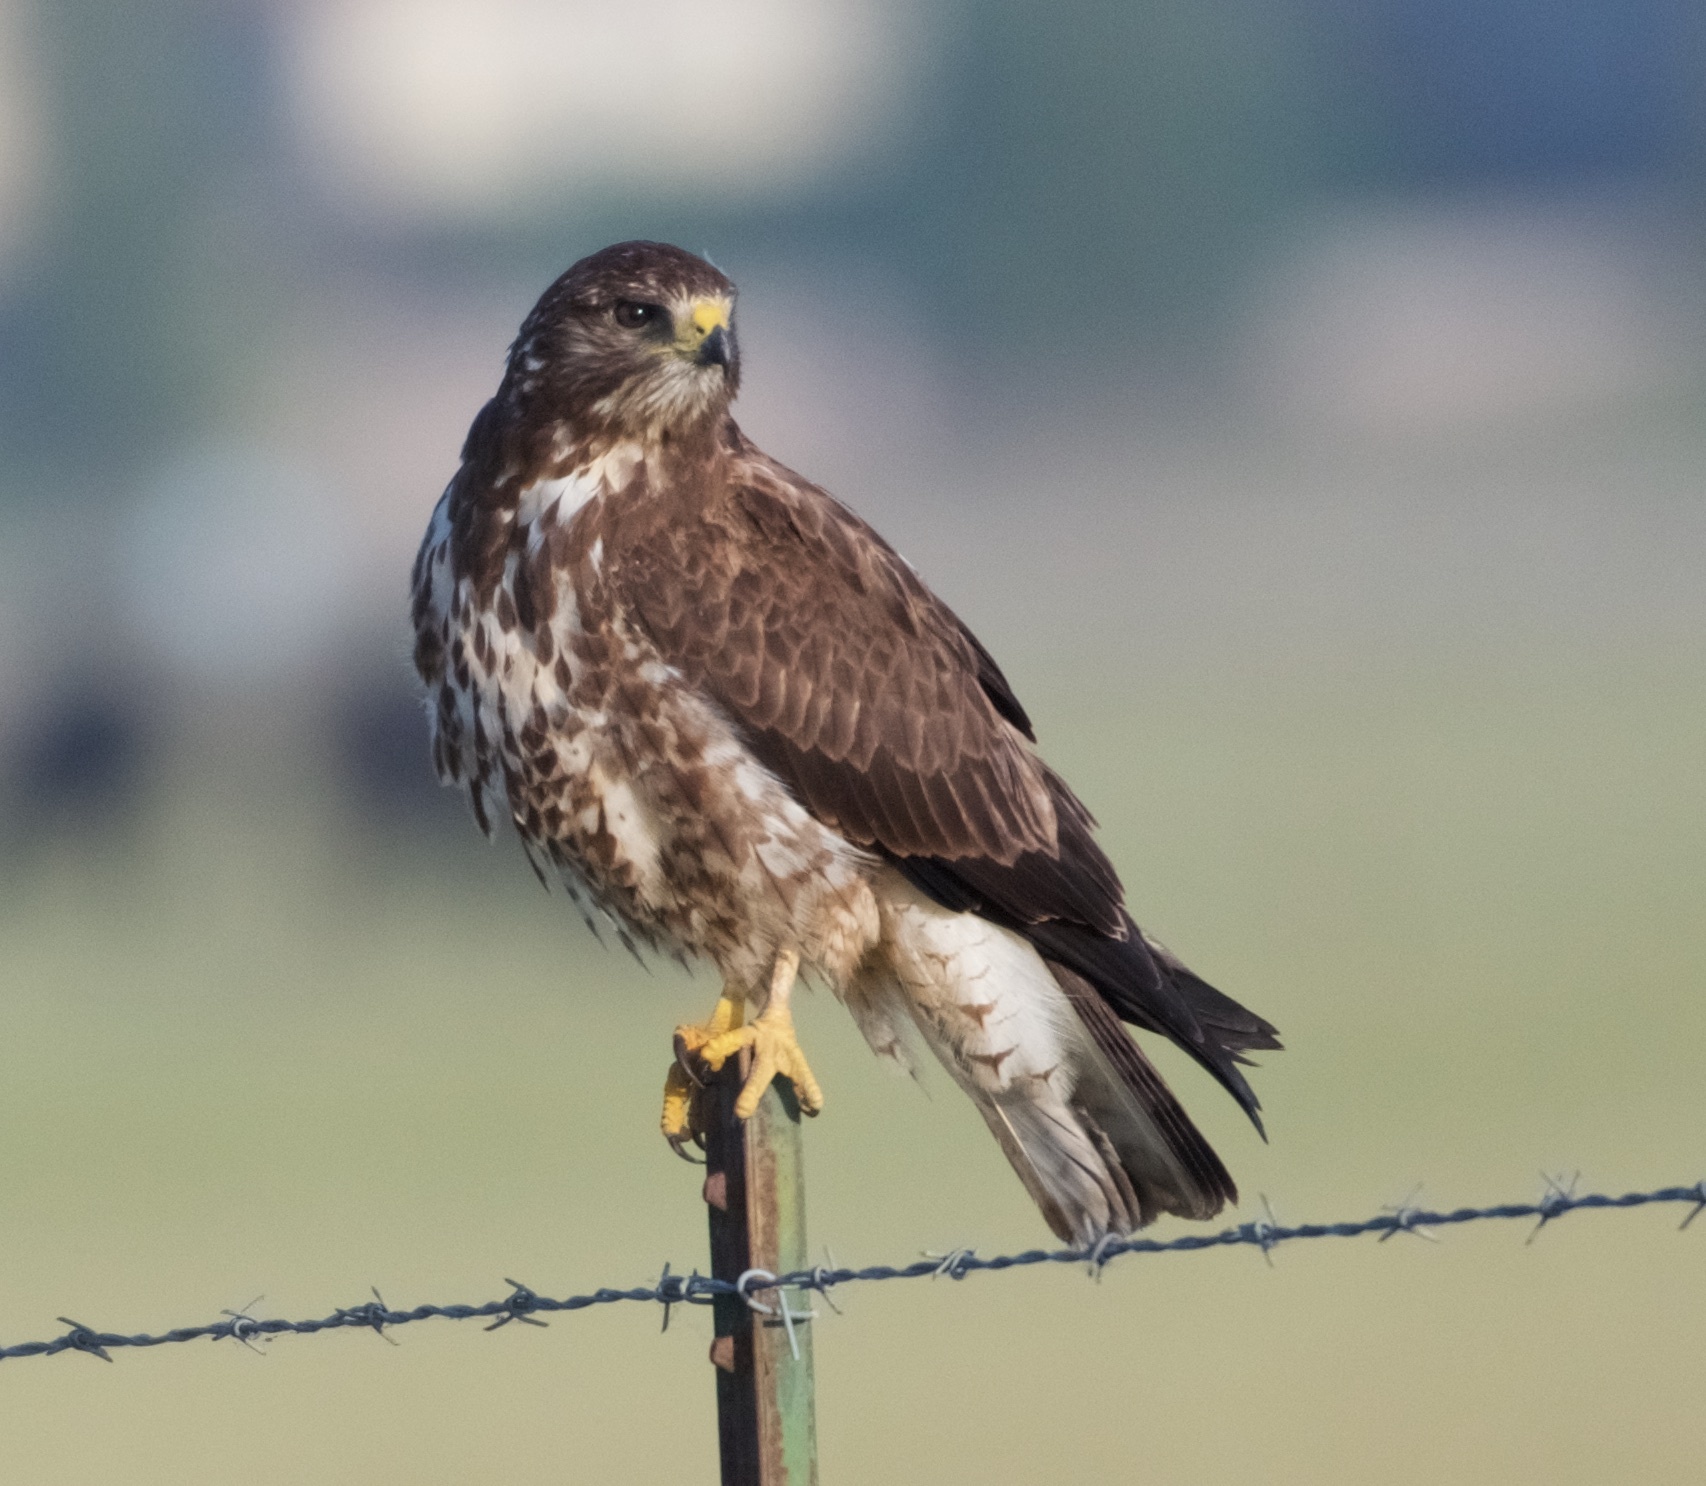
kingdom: Animalia
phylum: Chordata
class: Aves
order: Accipitriformes
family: Accipitridae
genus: Buteo
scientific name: Buteo swainsoni
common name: Swainson's hawk
